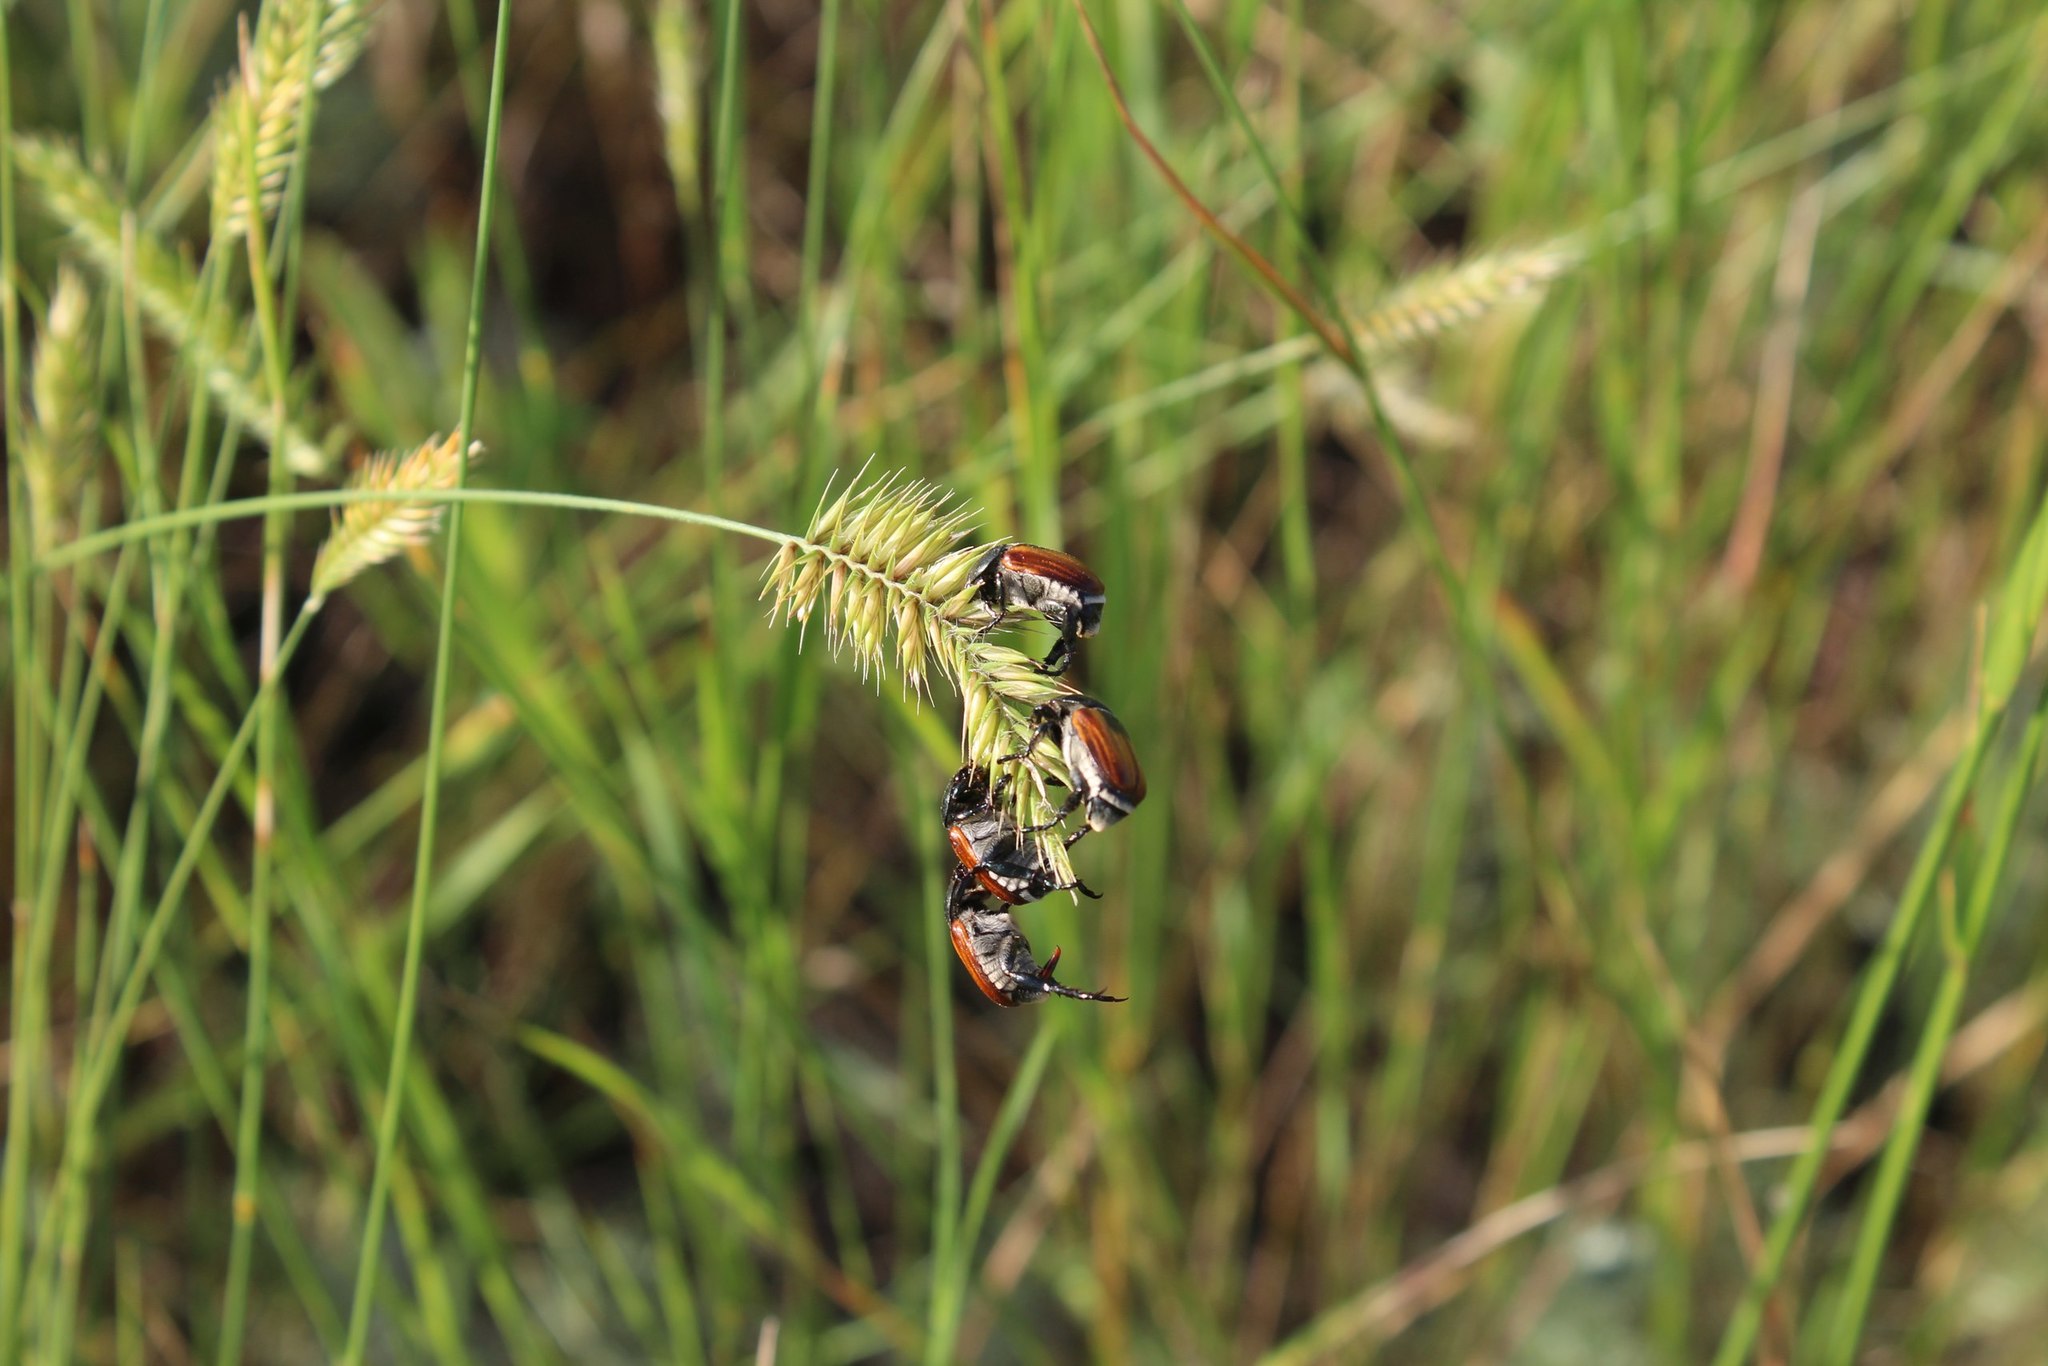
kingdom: Animalia
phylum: Arthropoda
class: Insecta
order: Coleoptera
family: Scarabaeidae
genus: Anisoplia
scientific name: Anisoplia austriaca
